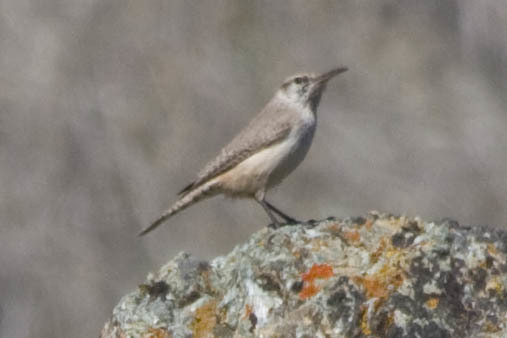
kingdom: Animalia
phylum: Chordata
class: Aves
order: Passeriformes
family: Troglodytidae
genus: Salpinctes
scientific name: Salpinctes obsoletus
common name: Rock wren
